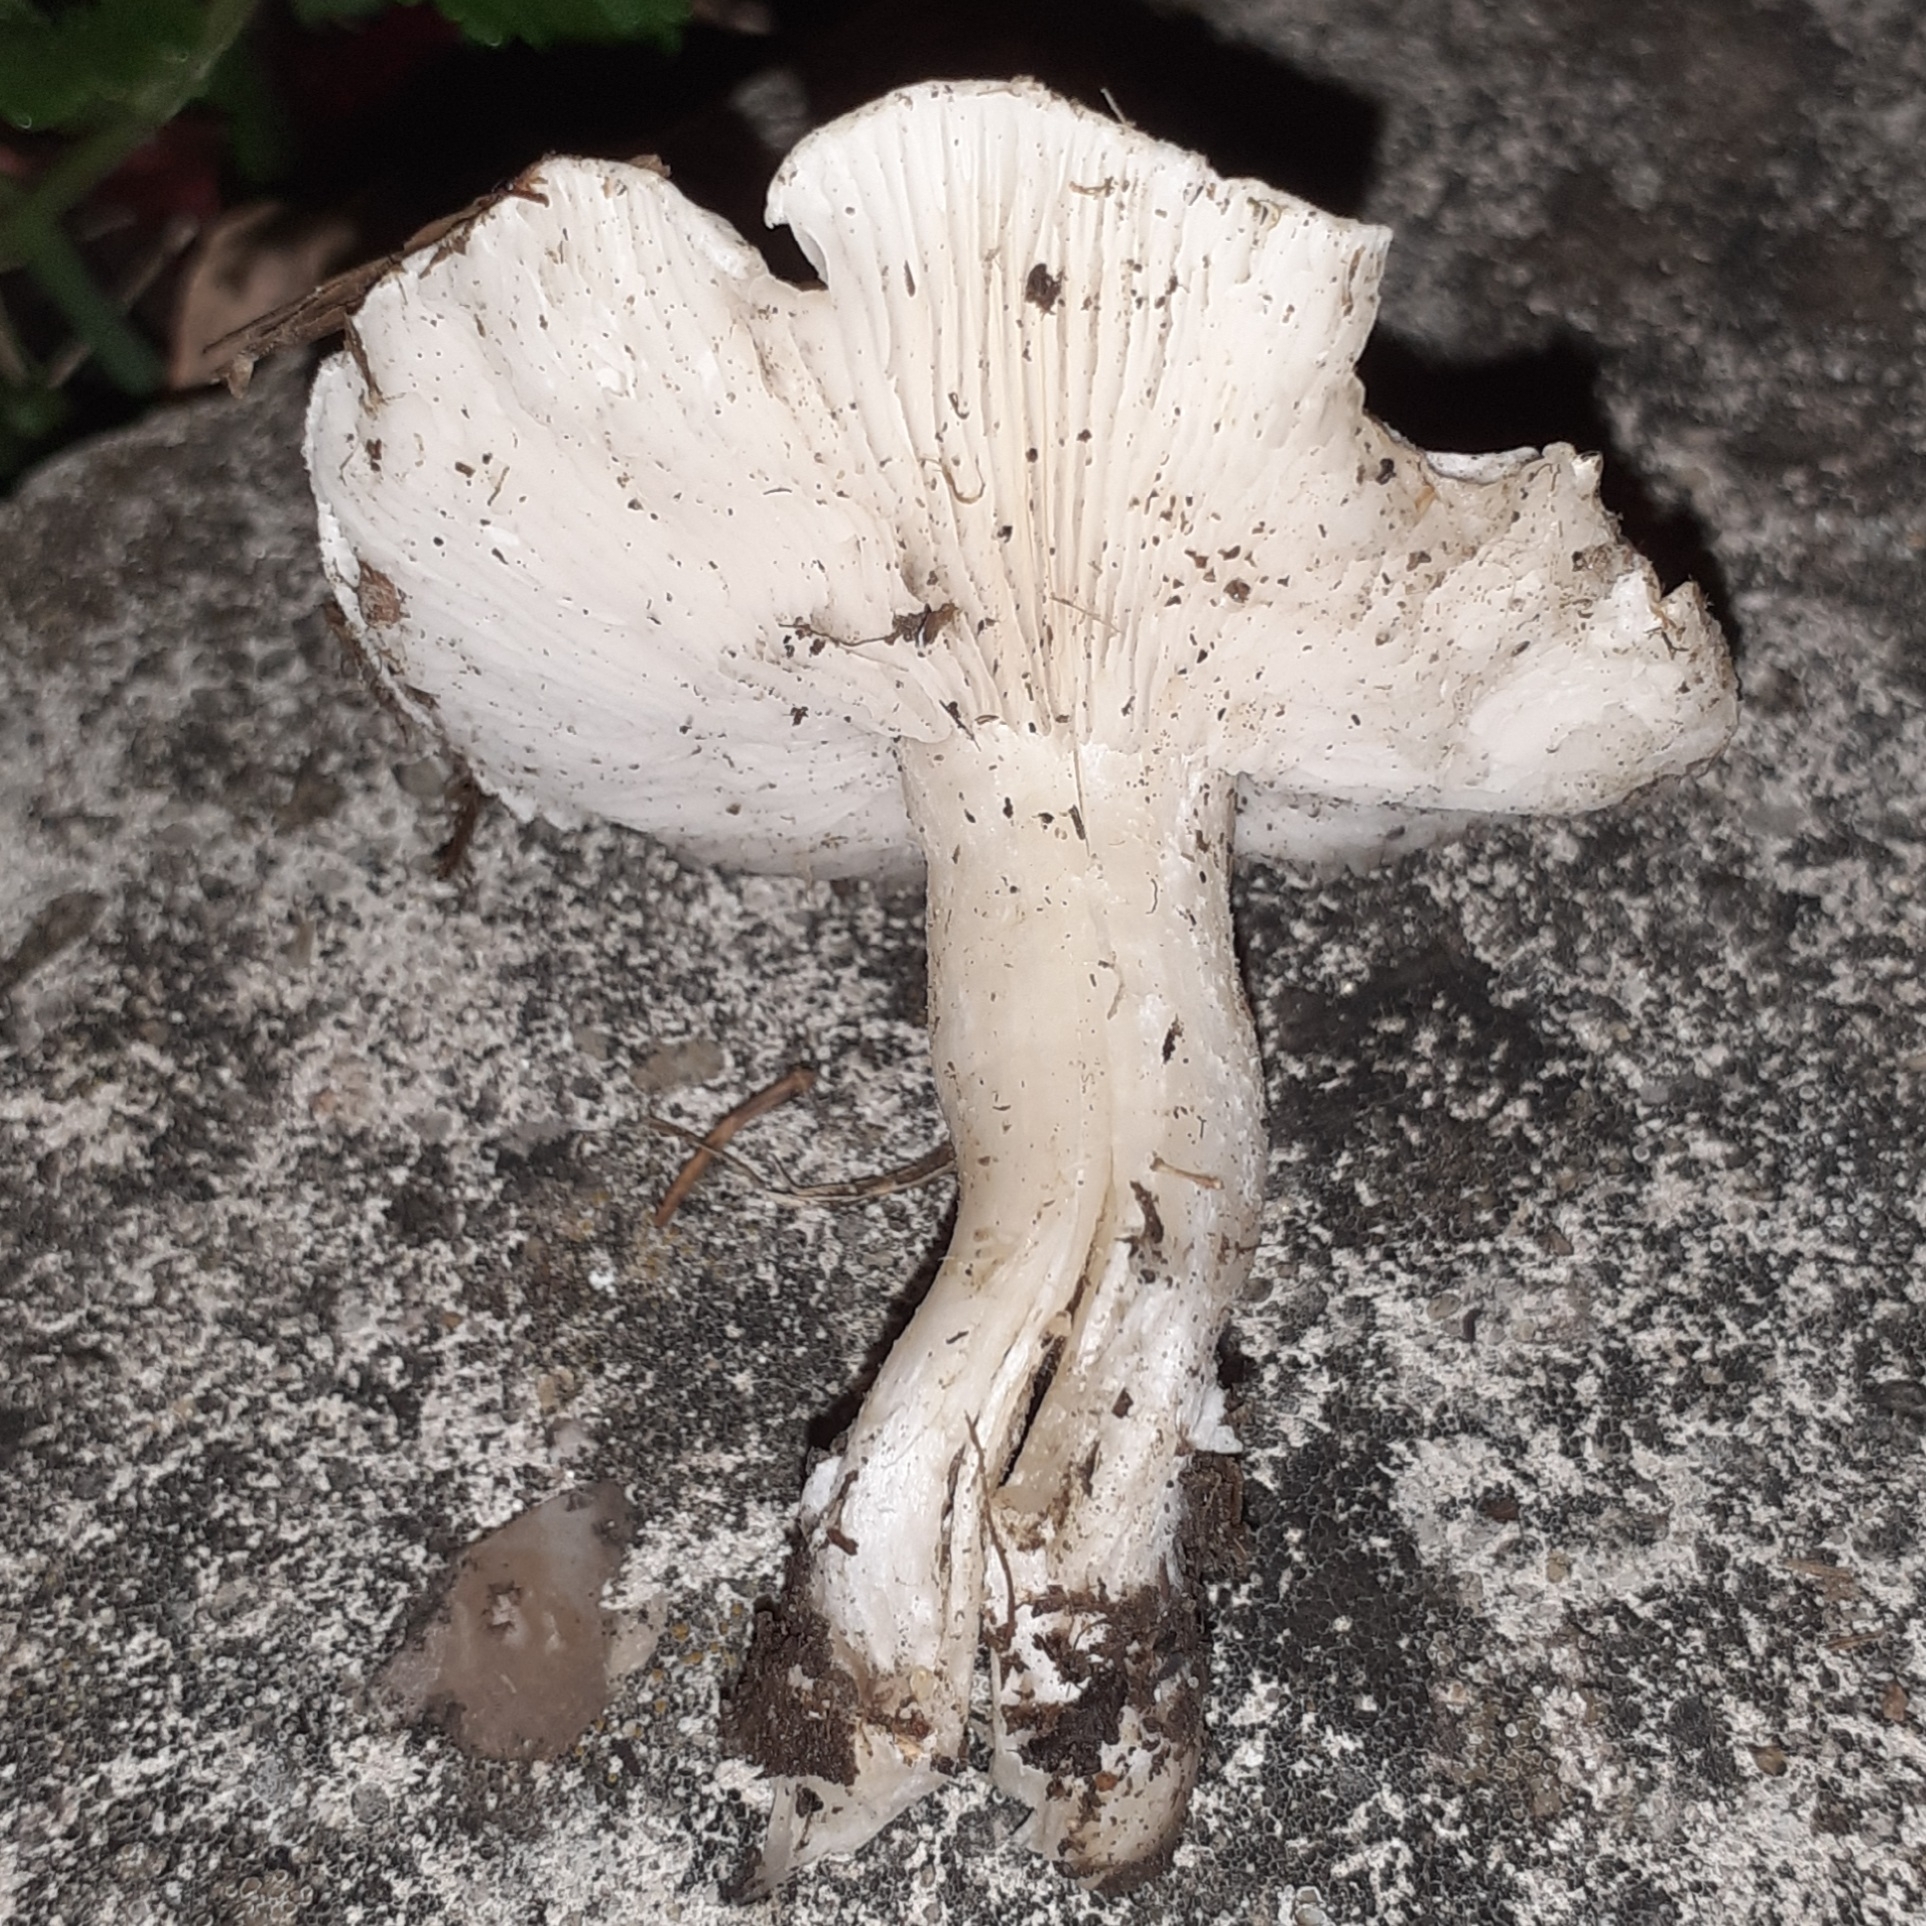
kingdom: Fungi
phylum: Basidiomycota
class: Agaricomycetes
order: Agaricales
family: Lyophyllaceae
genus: Tricholomella
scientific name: Tricholomella constricta
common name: Mealy domecap
